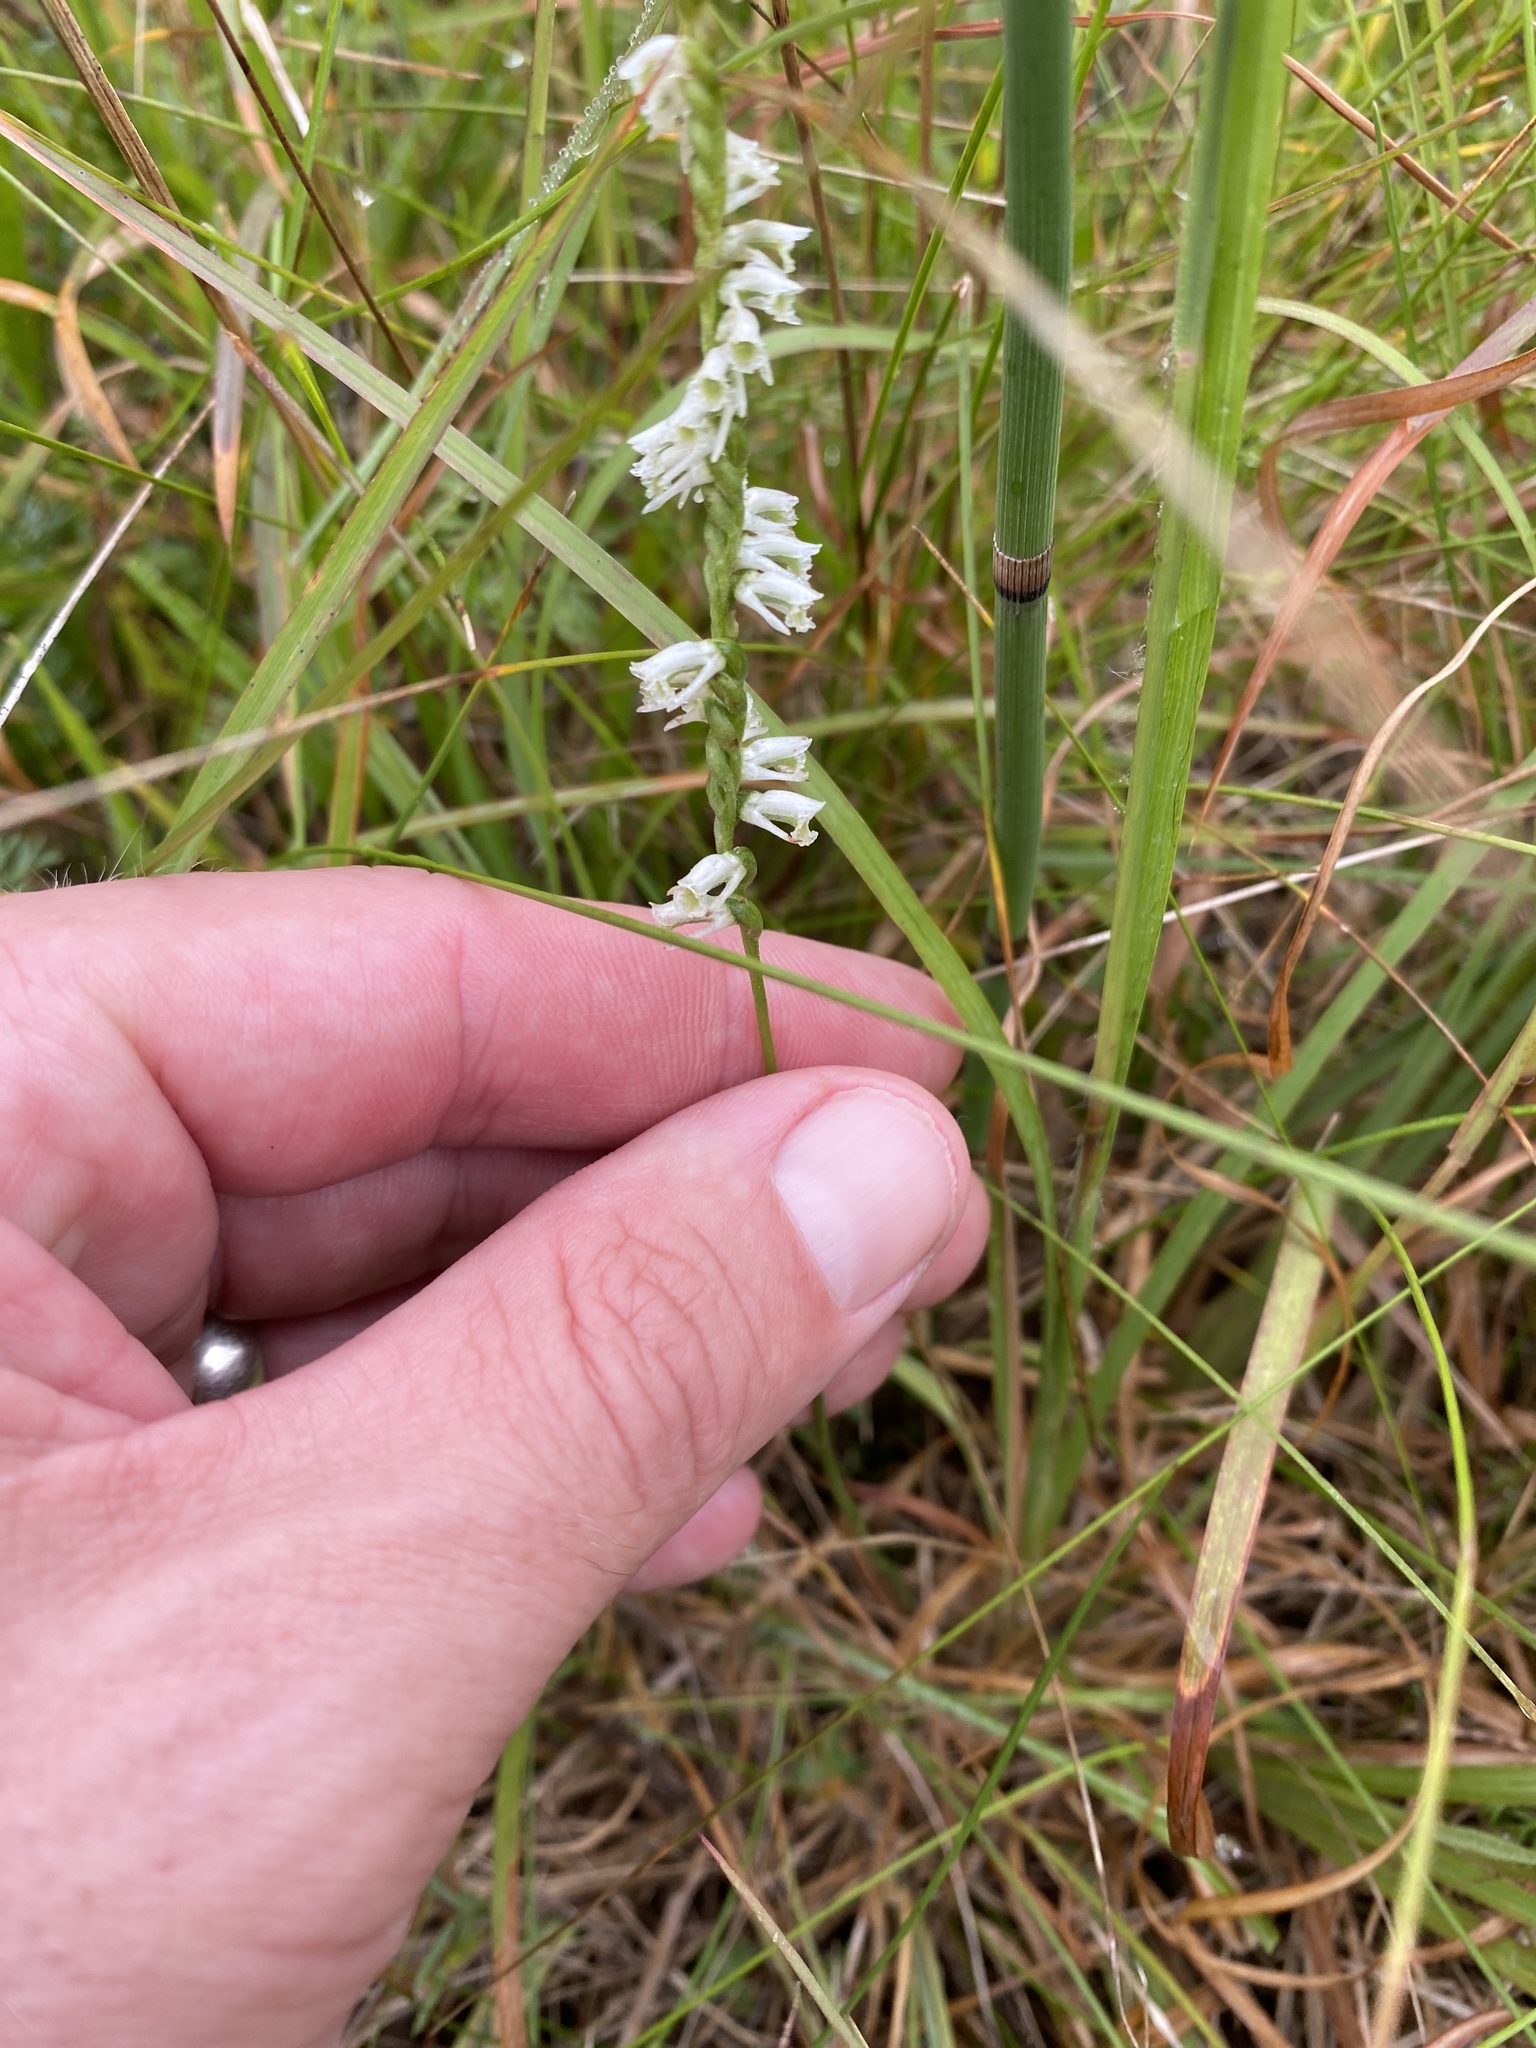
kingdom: Plantae
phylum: Tracheophyta
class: Liliopsida
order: Asparagales
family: Orchidaceae
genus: Spiranthes
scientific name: Spiranthes lacera
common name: Northern slender ladies'-tresses
